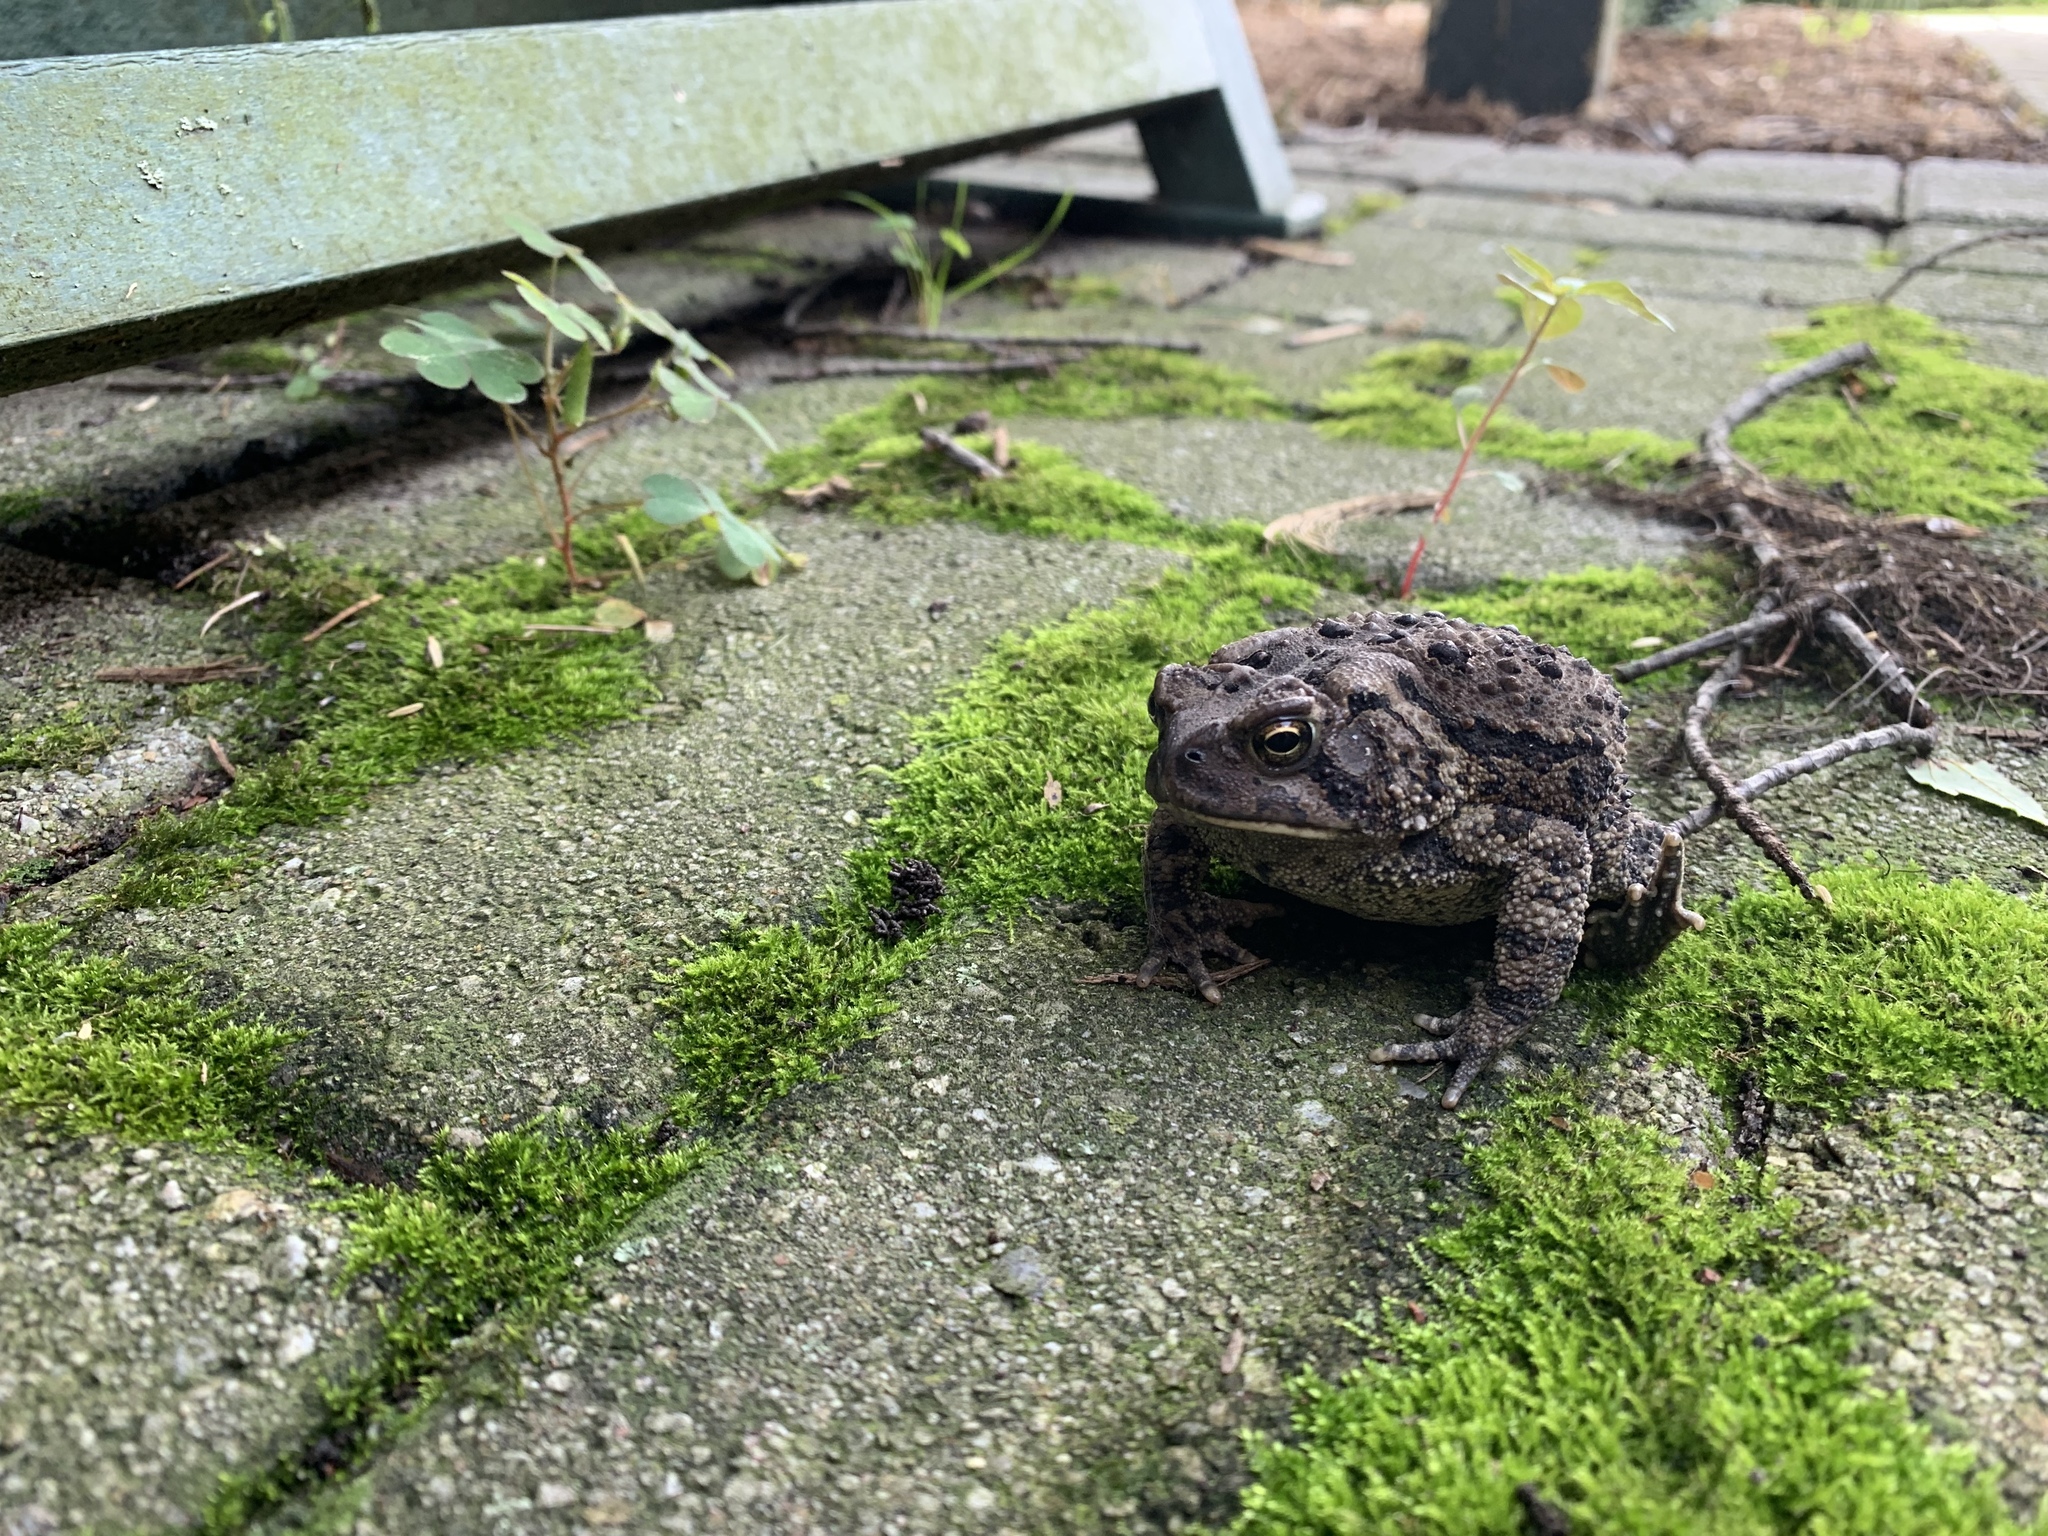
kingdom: Animalia
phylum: Chordata
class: Amphibia
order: Anura
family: Bufonidae
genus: Anaxyrus
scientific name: Anaxyrus americanus
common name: American toad
